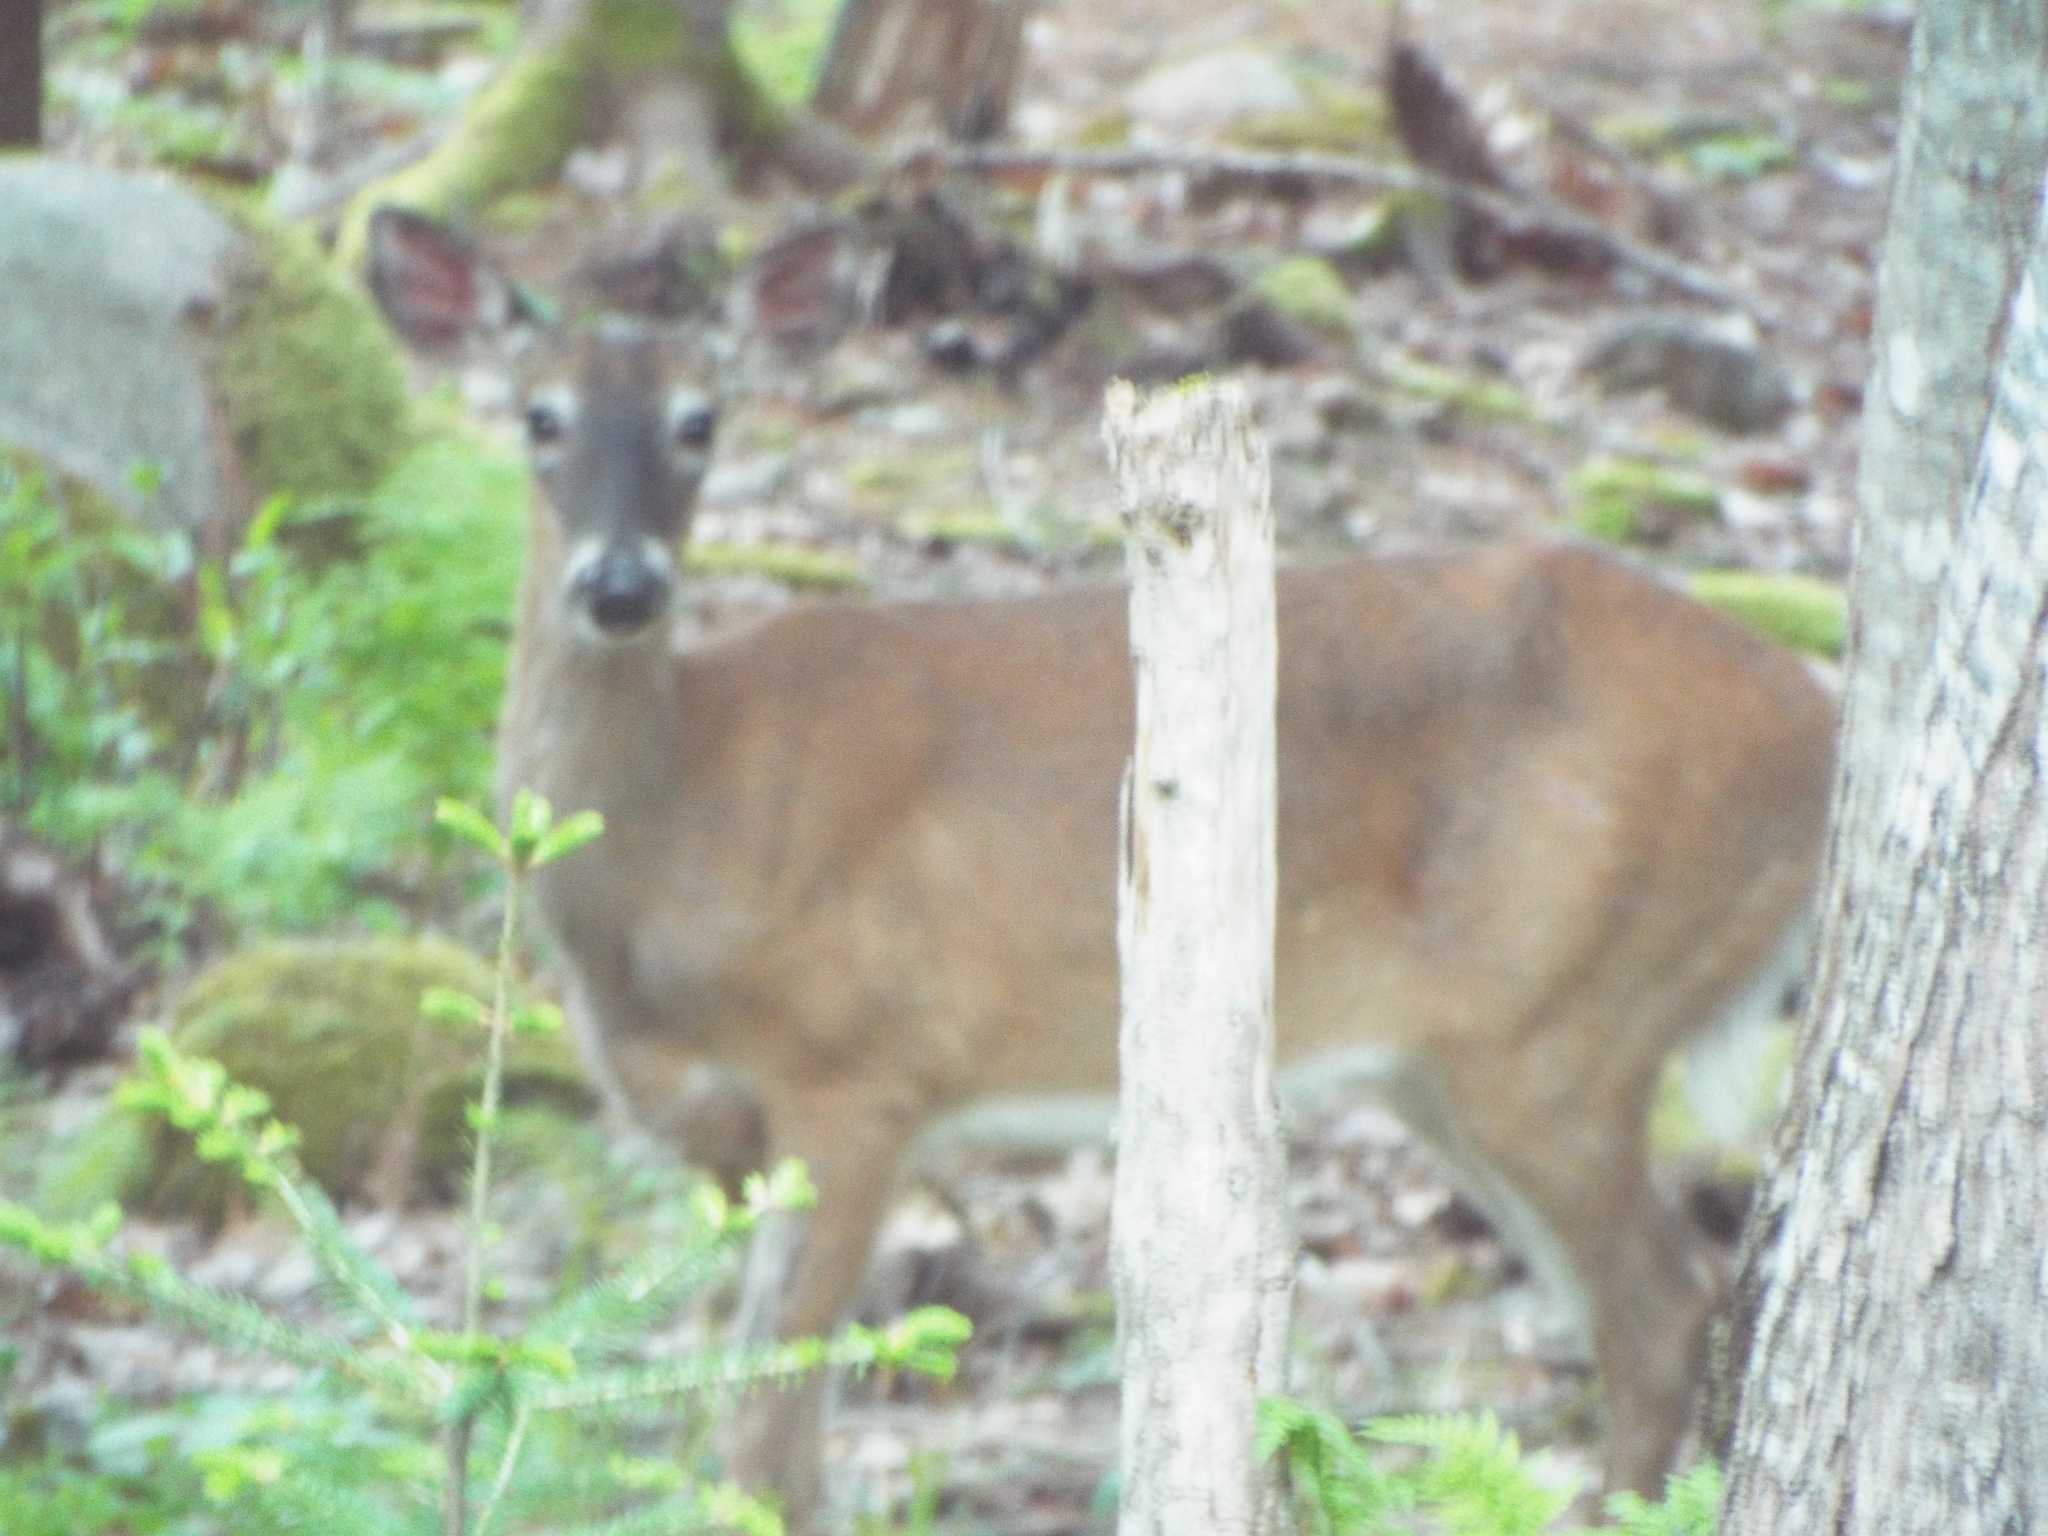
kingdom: Animalia
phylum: Chordata
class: Mammalia
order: Artiodactyla
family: Cervidae
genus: Odocoileus
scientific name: Odocoileus virginianus
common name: White-tailed deer
